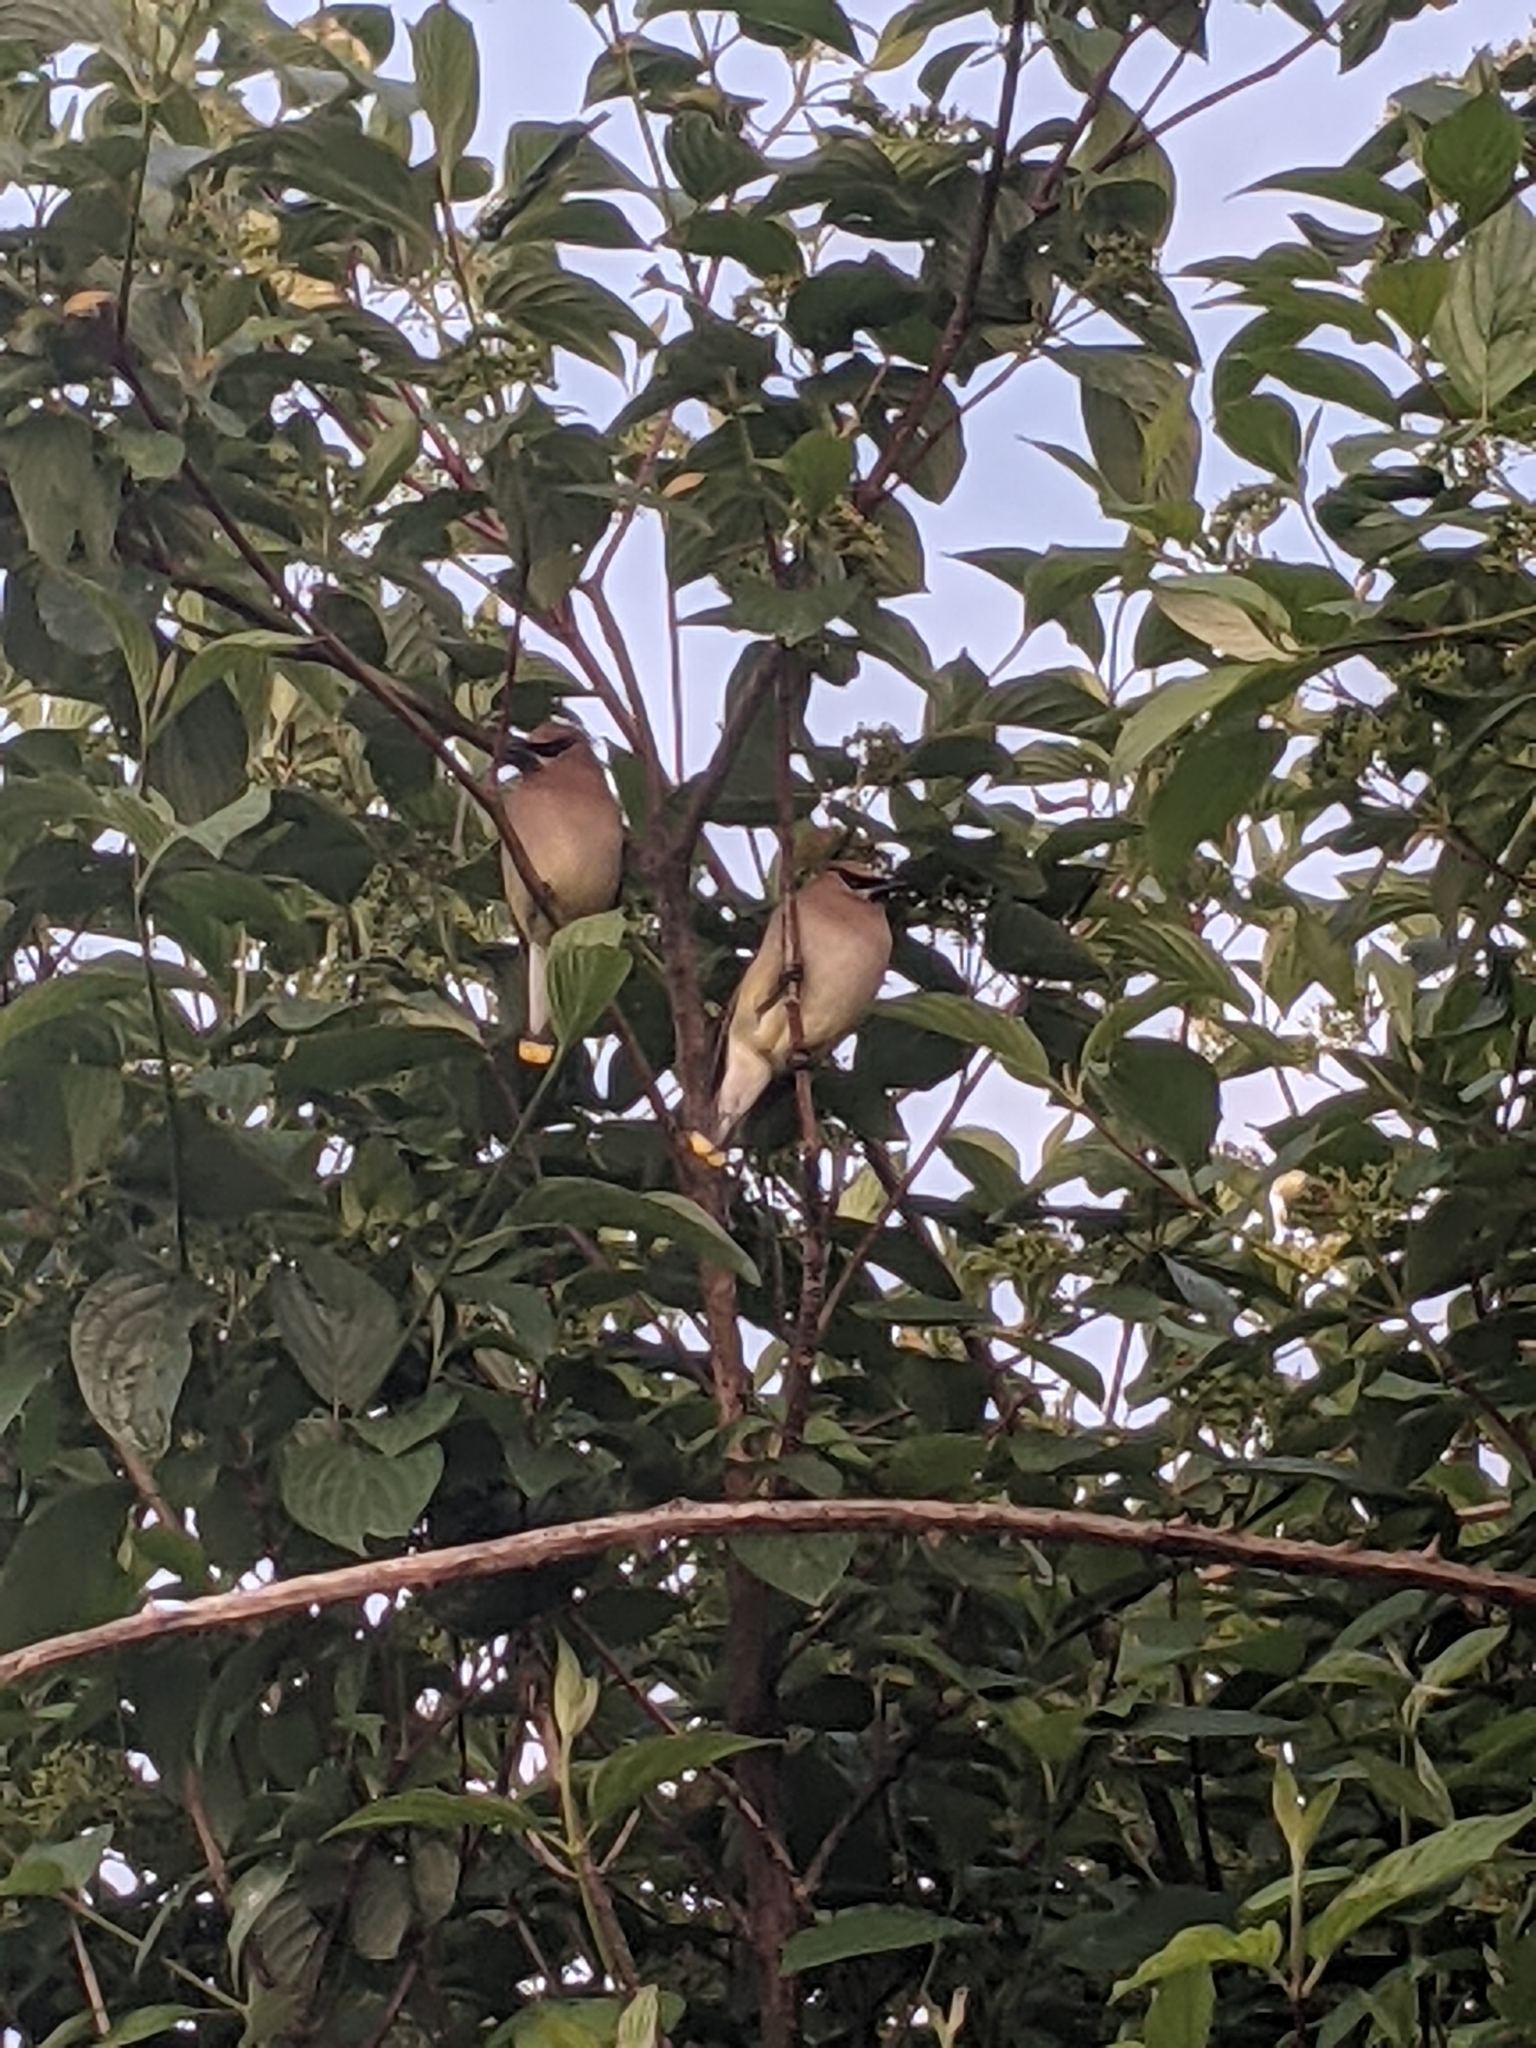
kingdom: Animalia
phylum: Chordata
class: Aves
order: Passeriformes
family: Bombycillidae
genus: Bombycilla
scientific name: Bombycilla cedrorum
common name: Cedar waxwing
